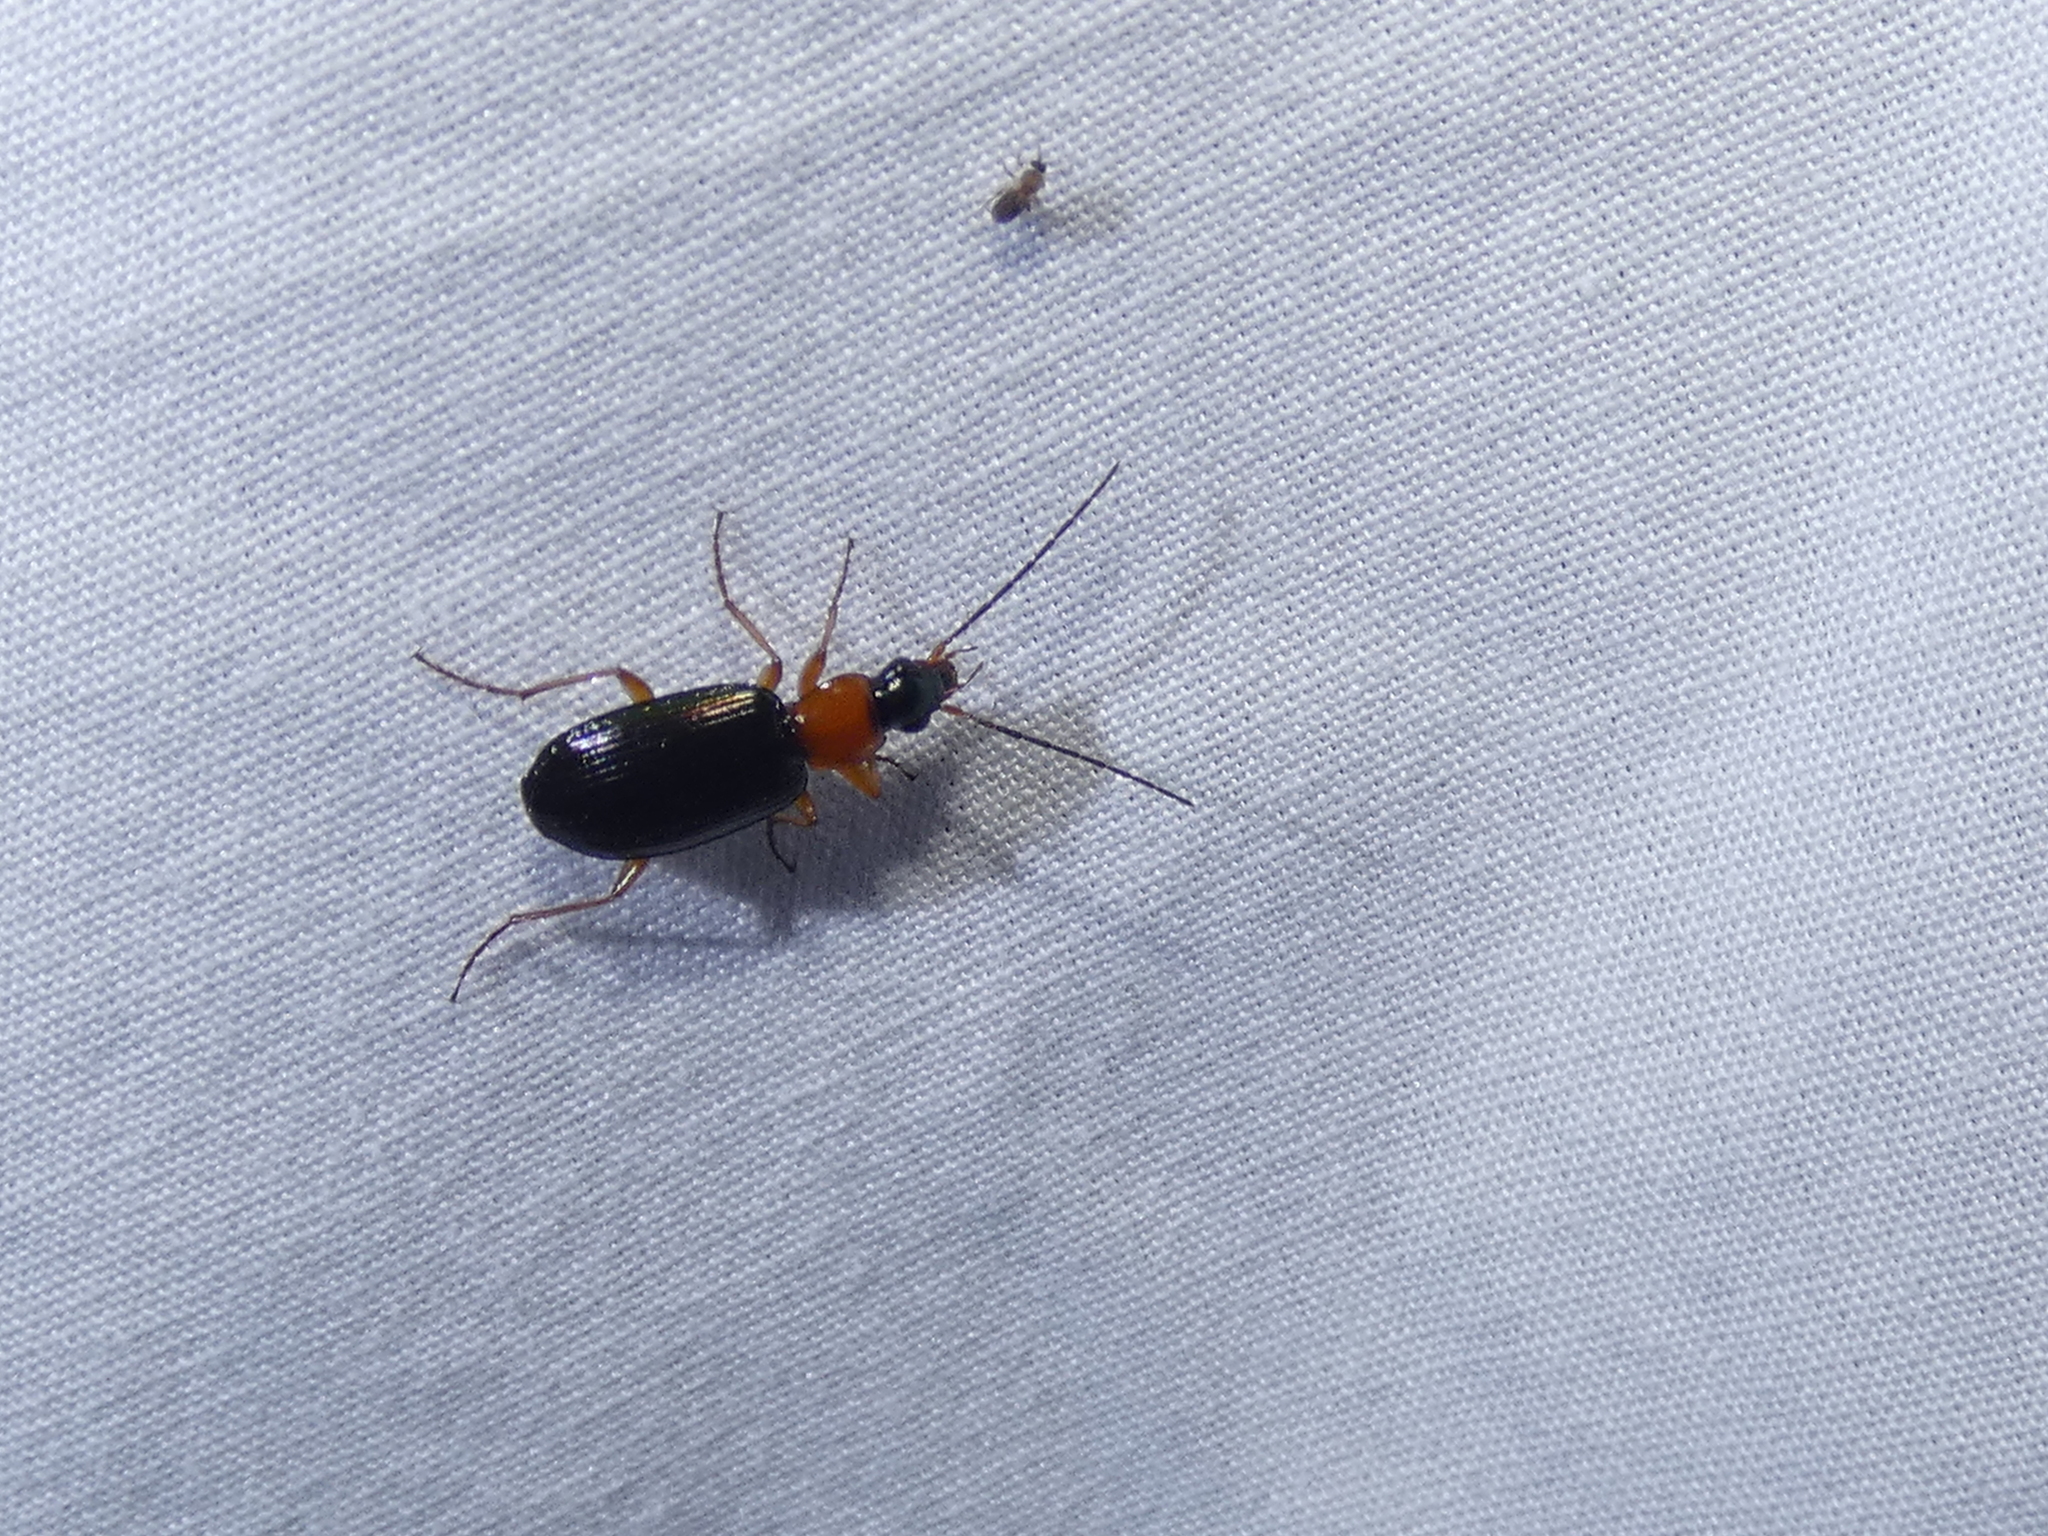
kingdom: Animalia
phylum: Arthropoda
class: Insecta
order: Coleoptera
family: Carabidae
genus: Agonum
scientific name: Agonum decorum
